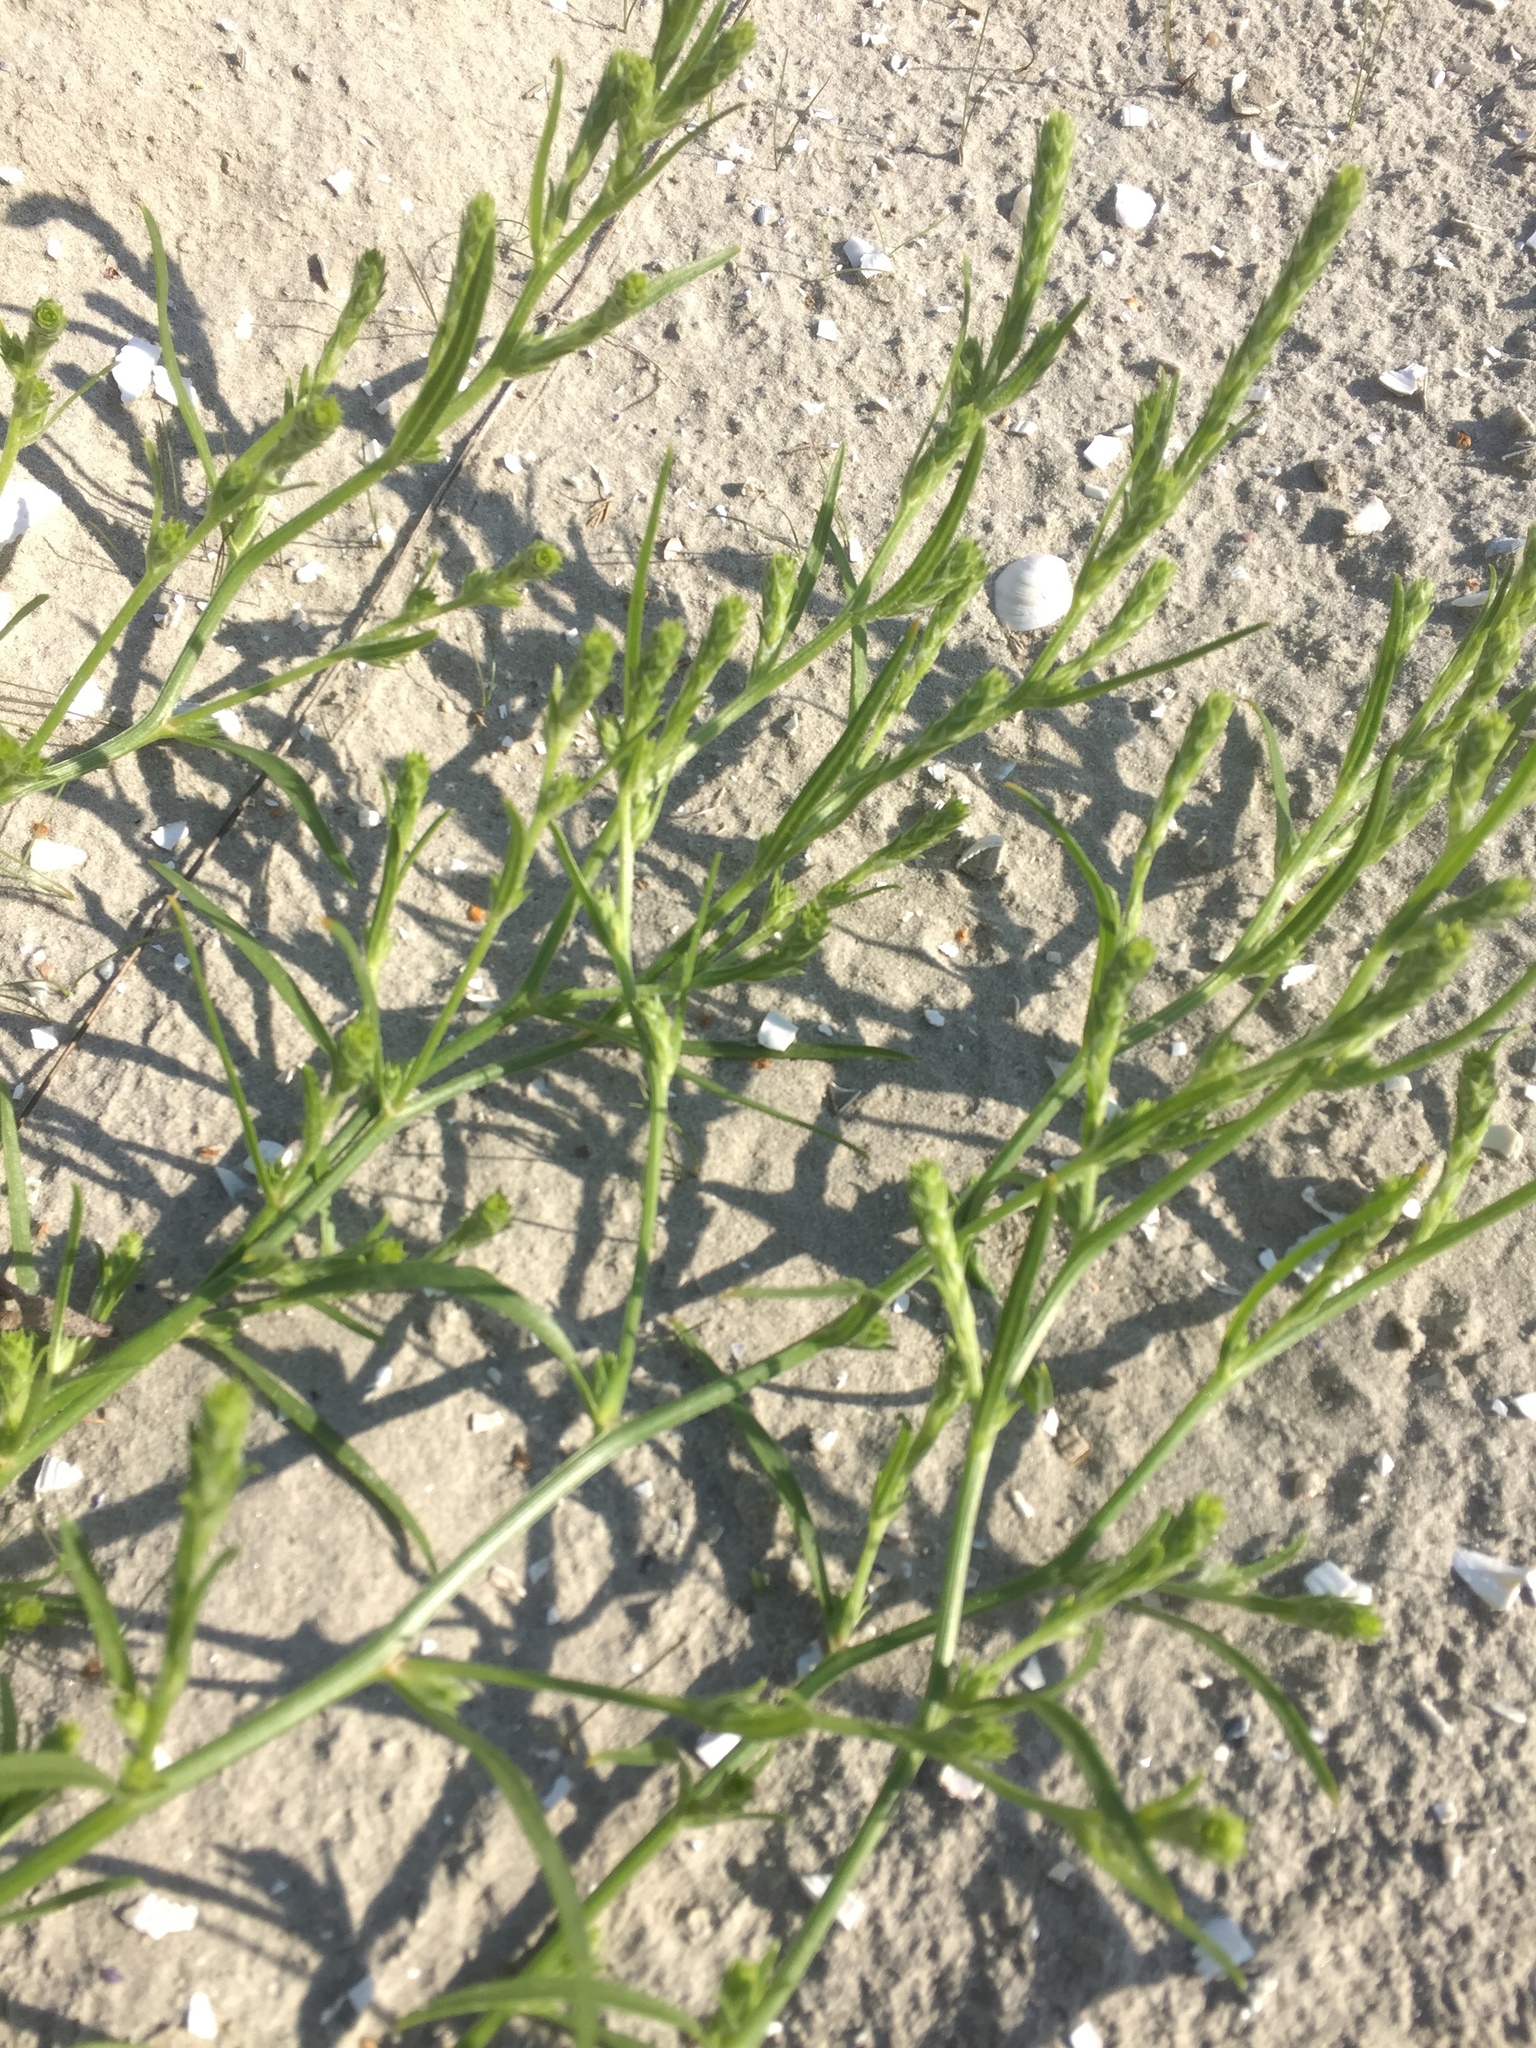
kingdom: Plantae
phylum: Tracheophyta
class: Magnoliopsida
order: Caryophyllales
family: Amaranthaceae
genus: Corispermum
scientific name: Corispermum intermedium
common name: Hyssop-leaved tickseed
